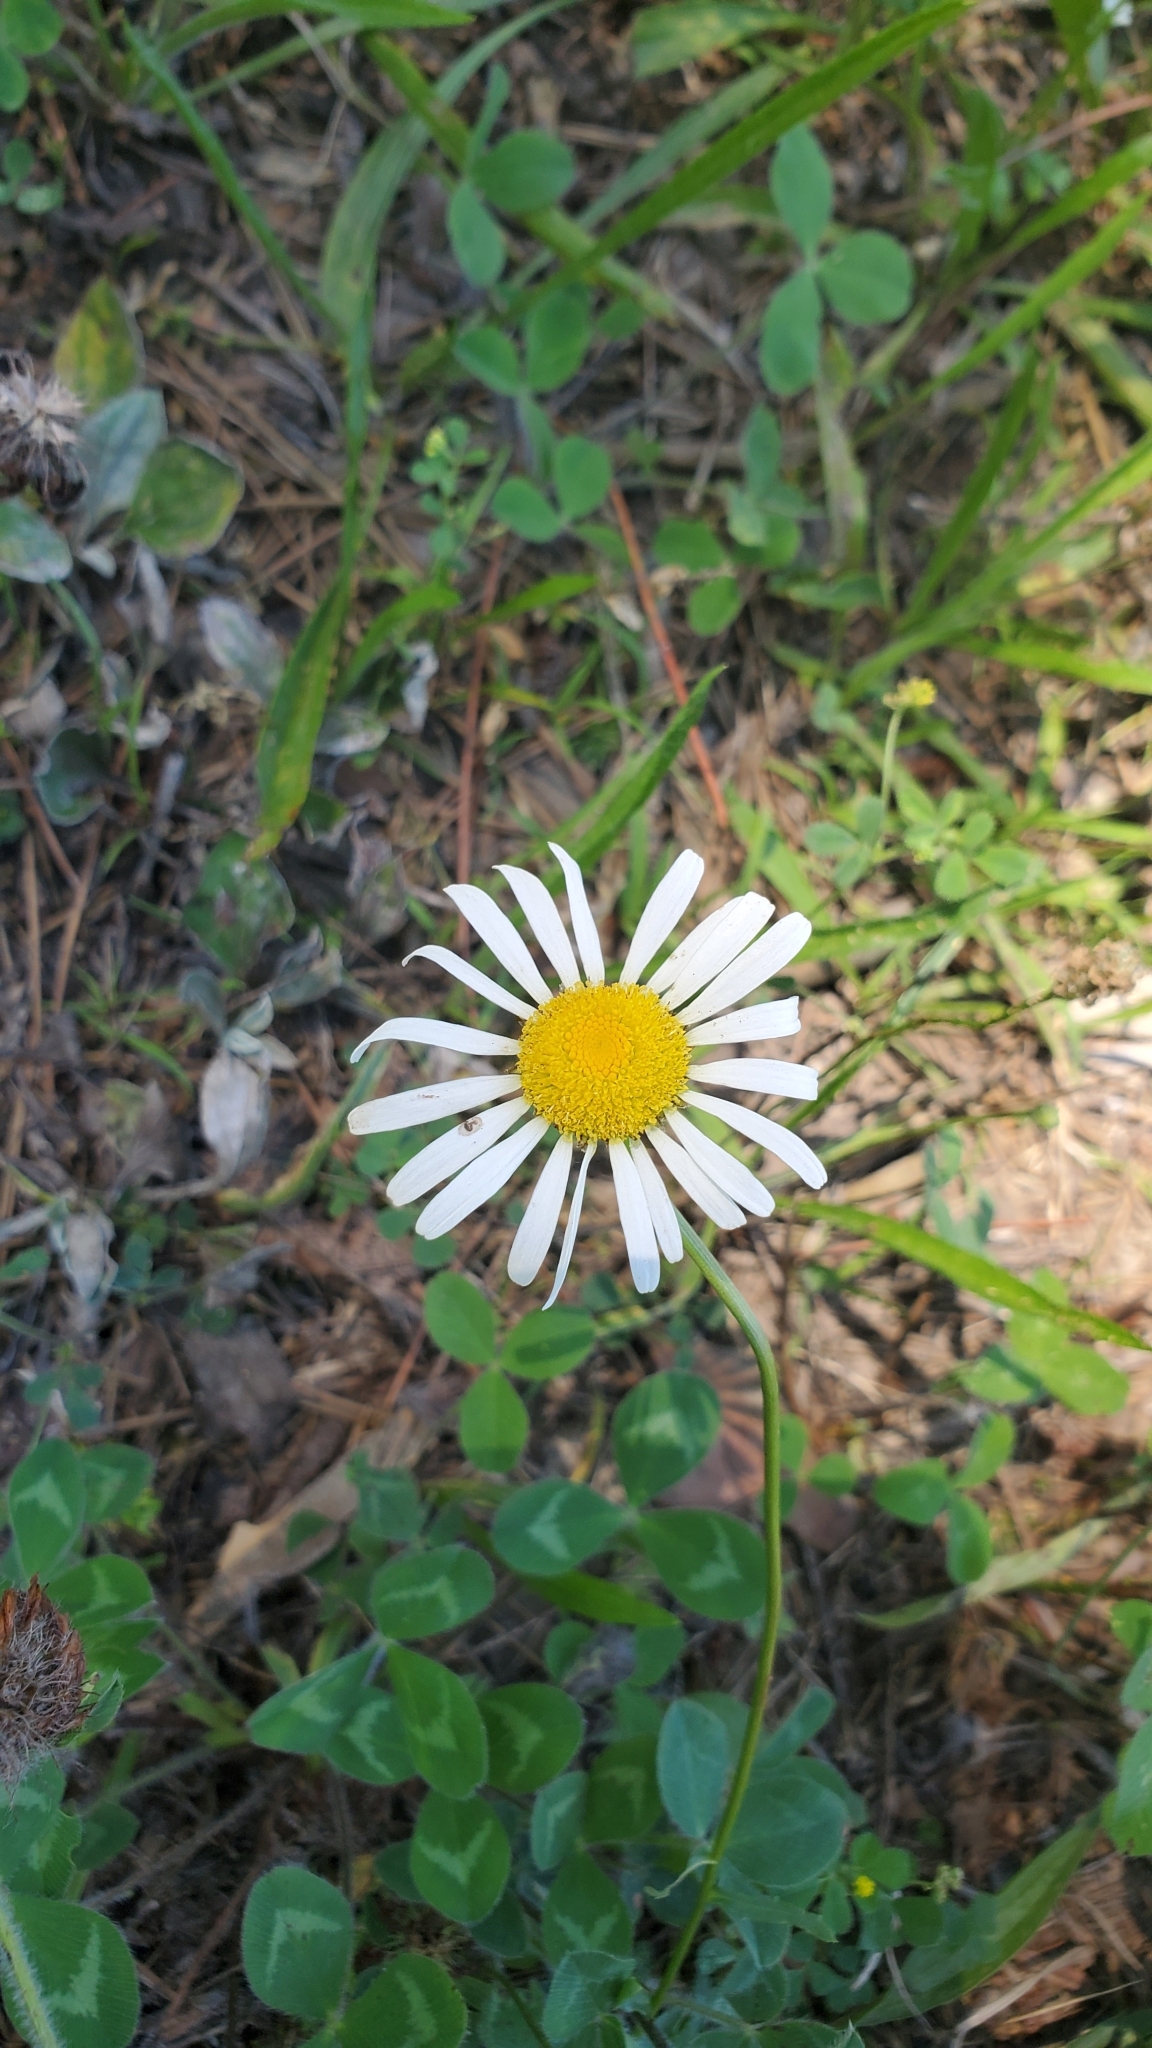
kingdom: Plantae
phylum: Tracheophyta
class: Magnoliopsida
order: Asterales
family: Asteraceae
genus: Leucanthemum
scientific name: Leucanthemum vulgare
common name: Oxeye daisy
